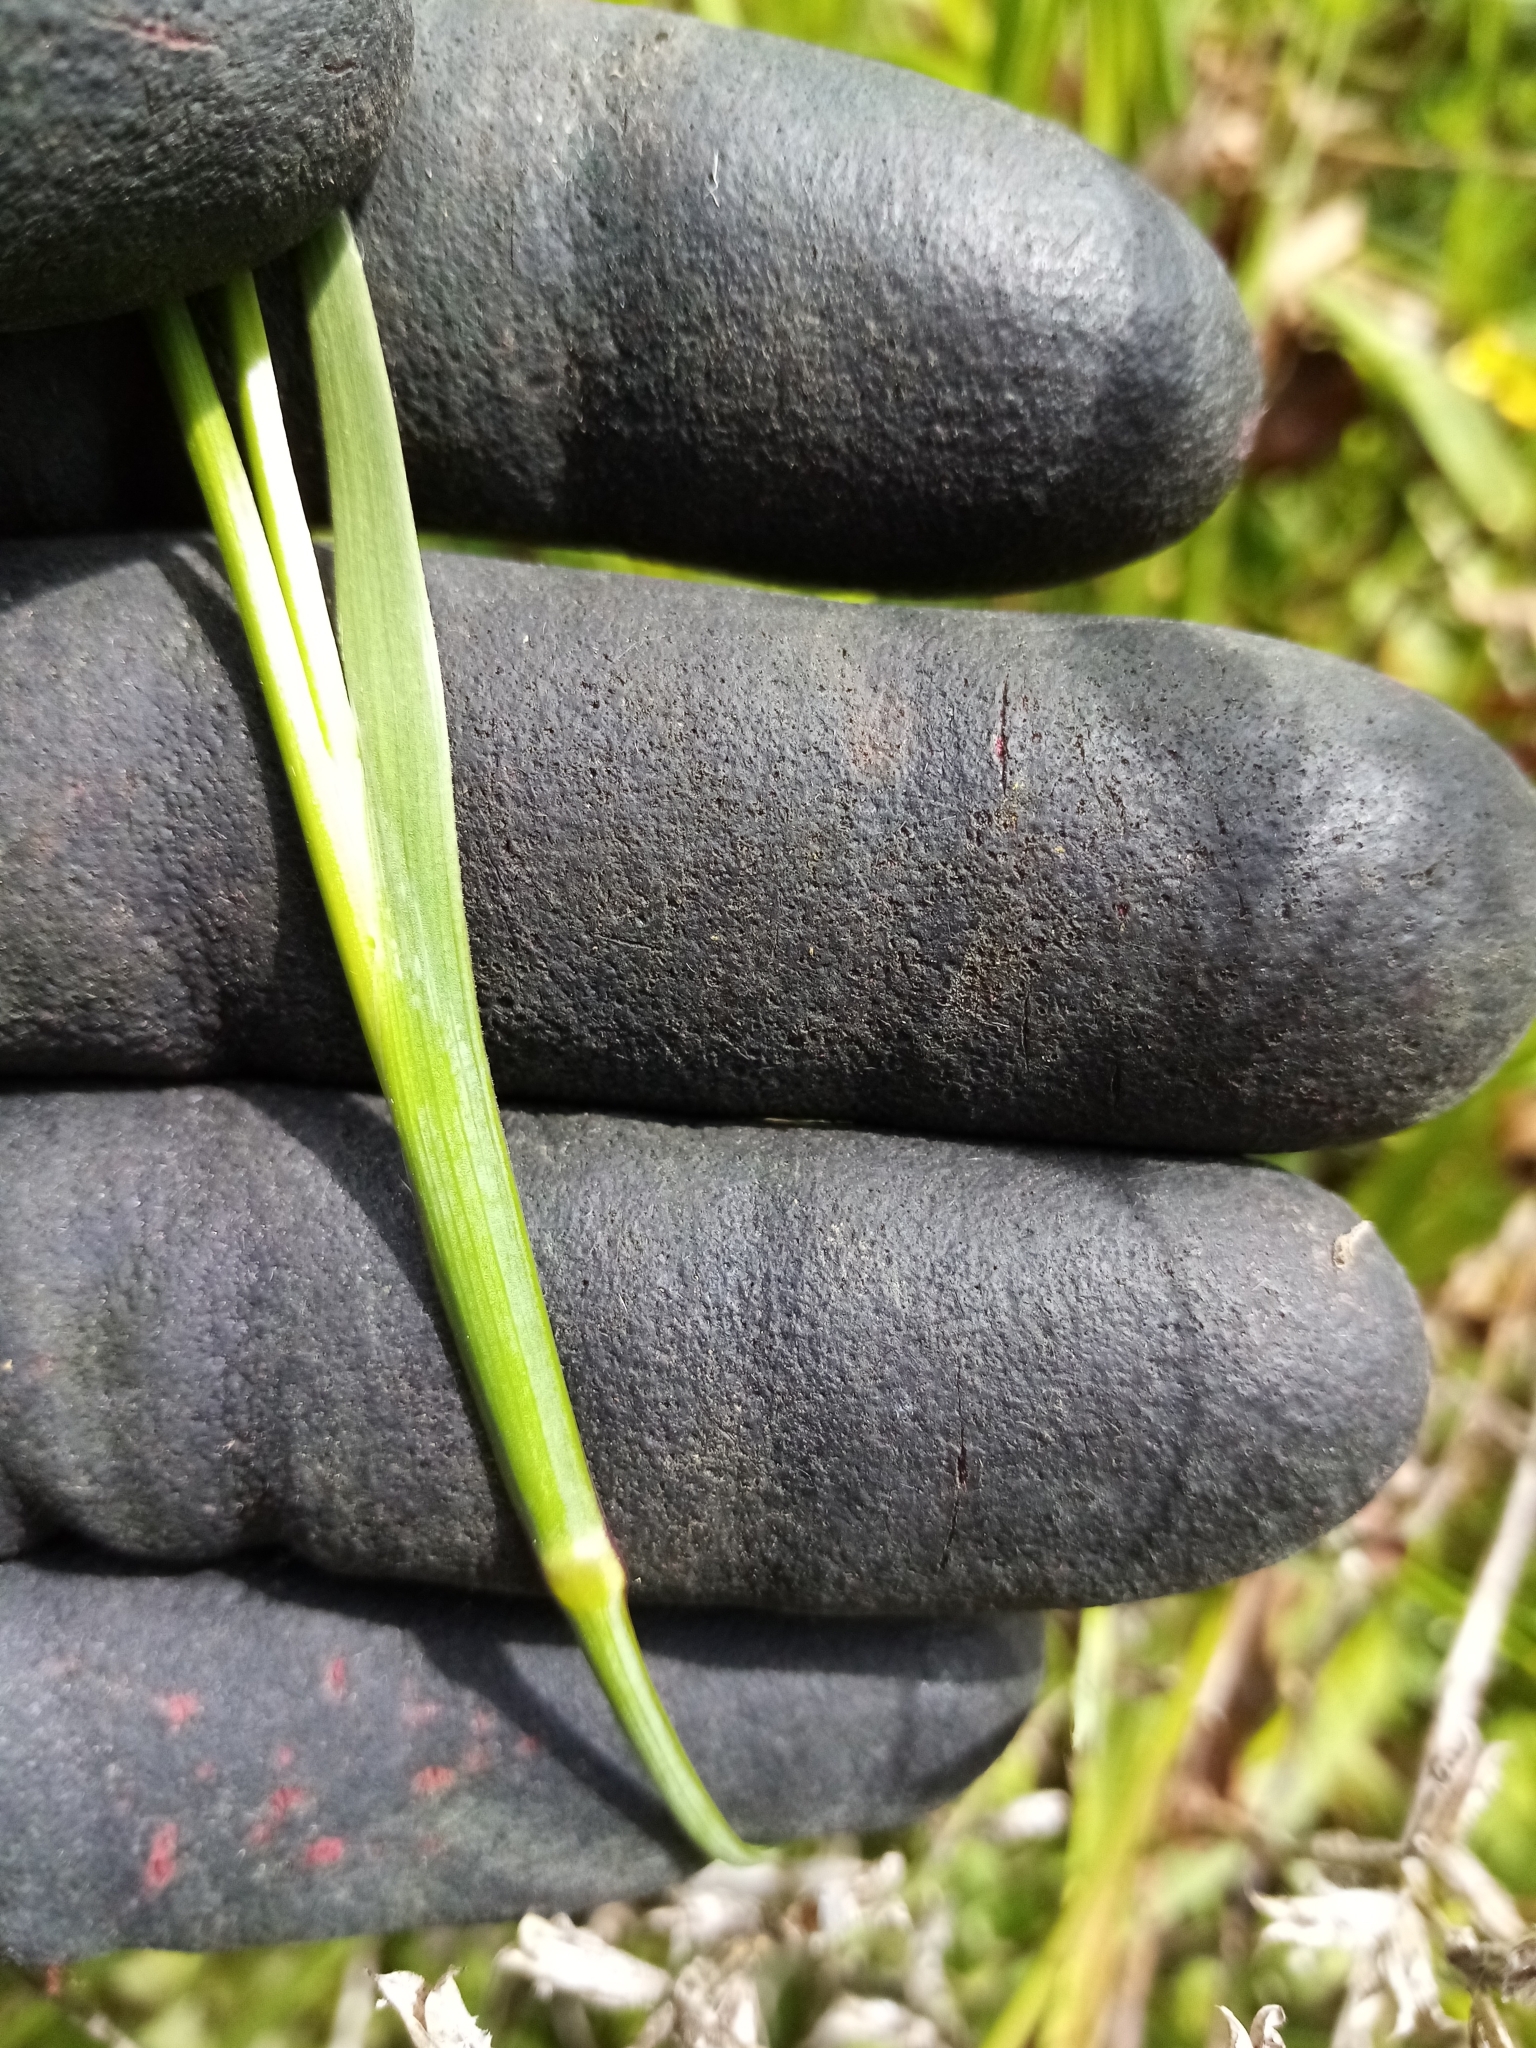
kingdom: Plantae
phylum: Tracheophyta
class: Liliopsida
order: Asparagales
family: Orchidaceae
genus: Microtis
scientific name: Microtis unifolia
